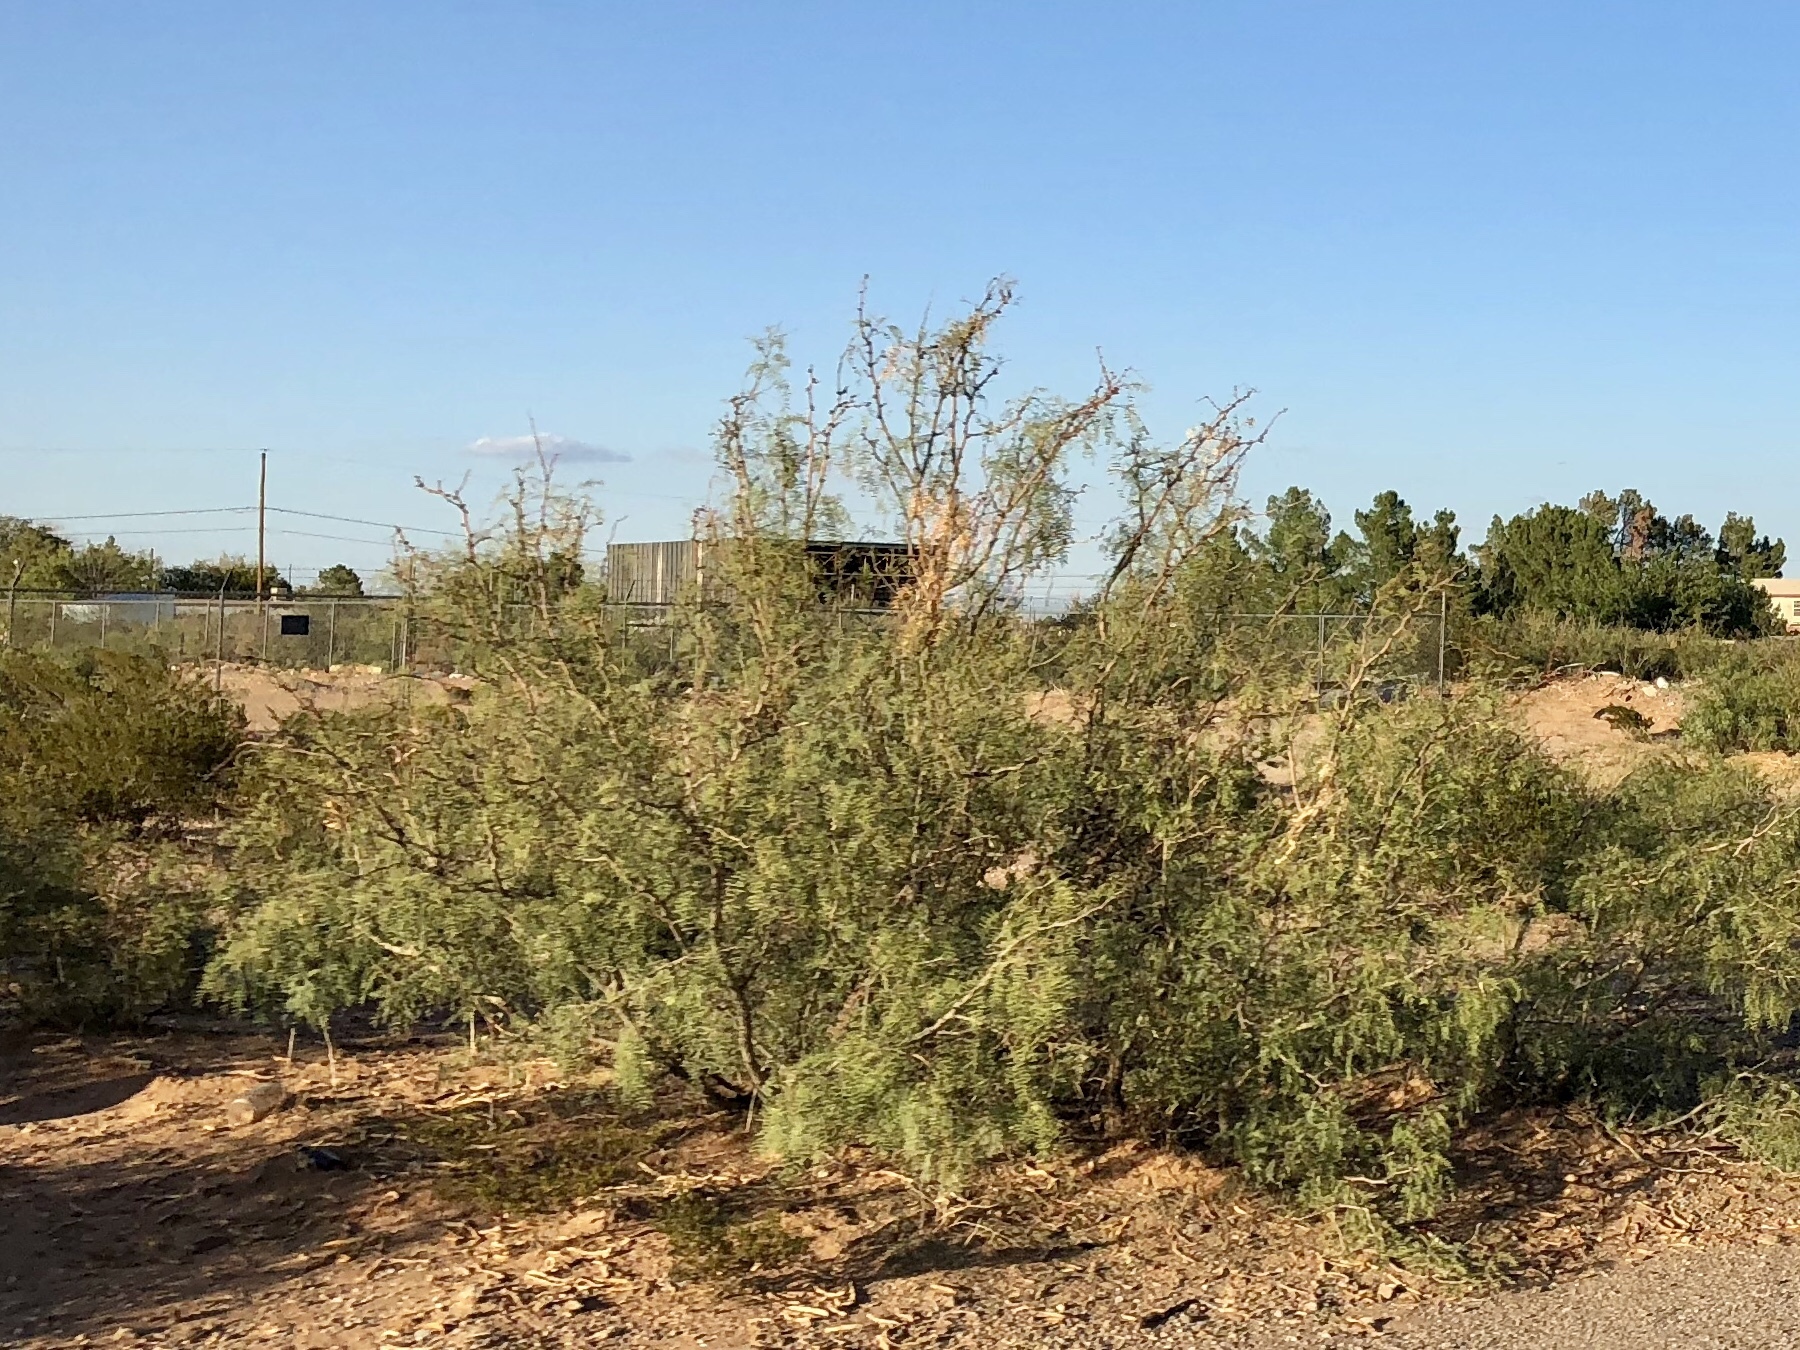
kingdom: Plantae
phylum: Tracheophyta
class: Magnoliopsida
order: Fabales
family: Fabaceae
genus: Prosopis
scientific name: Prosopis glandulosa
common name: Honey mesquite
